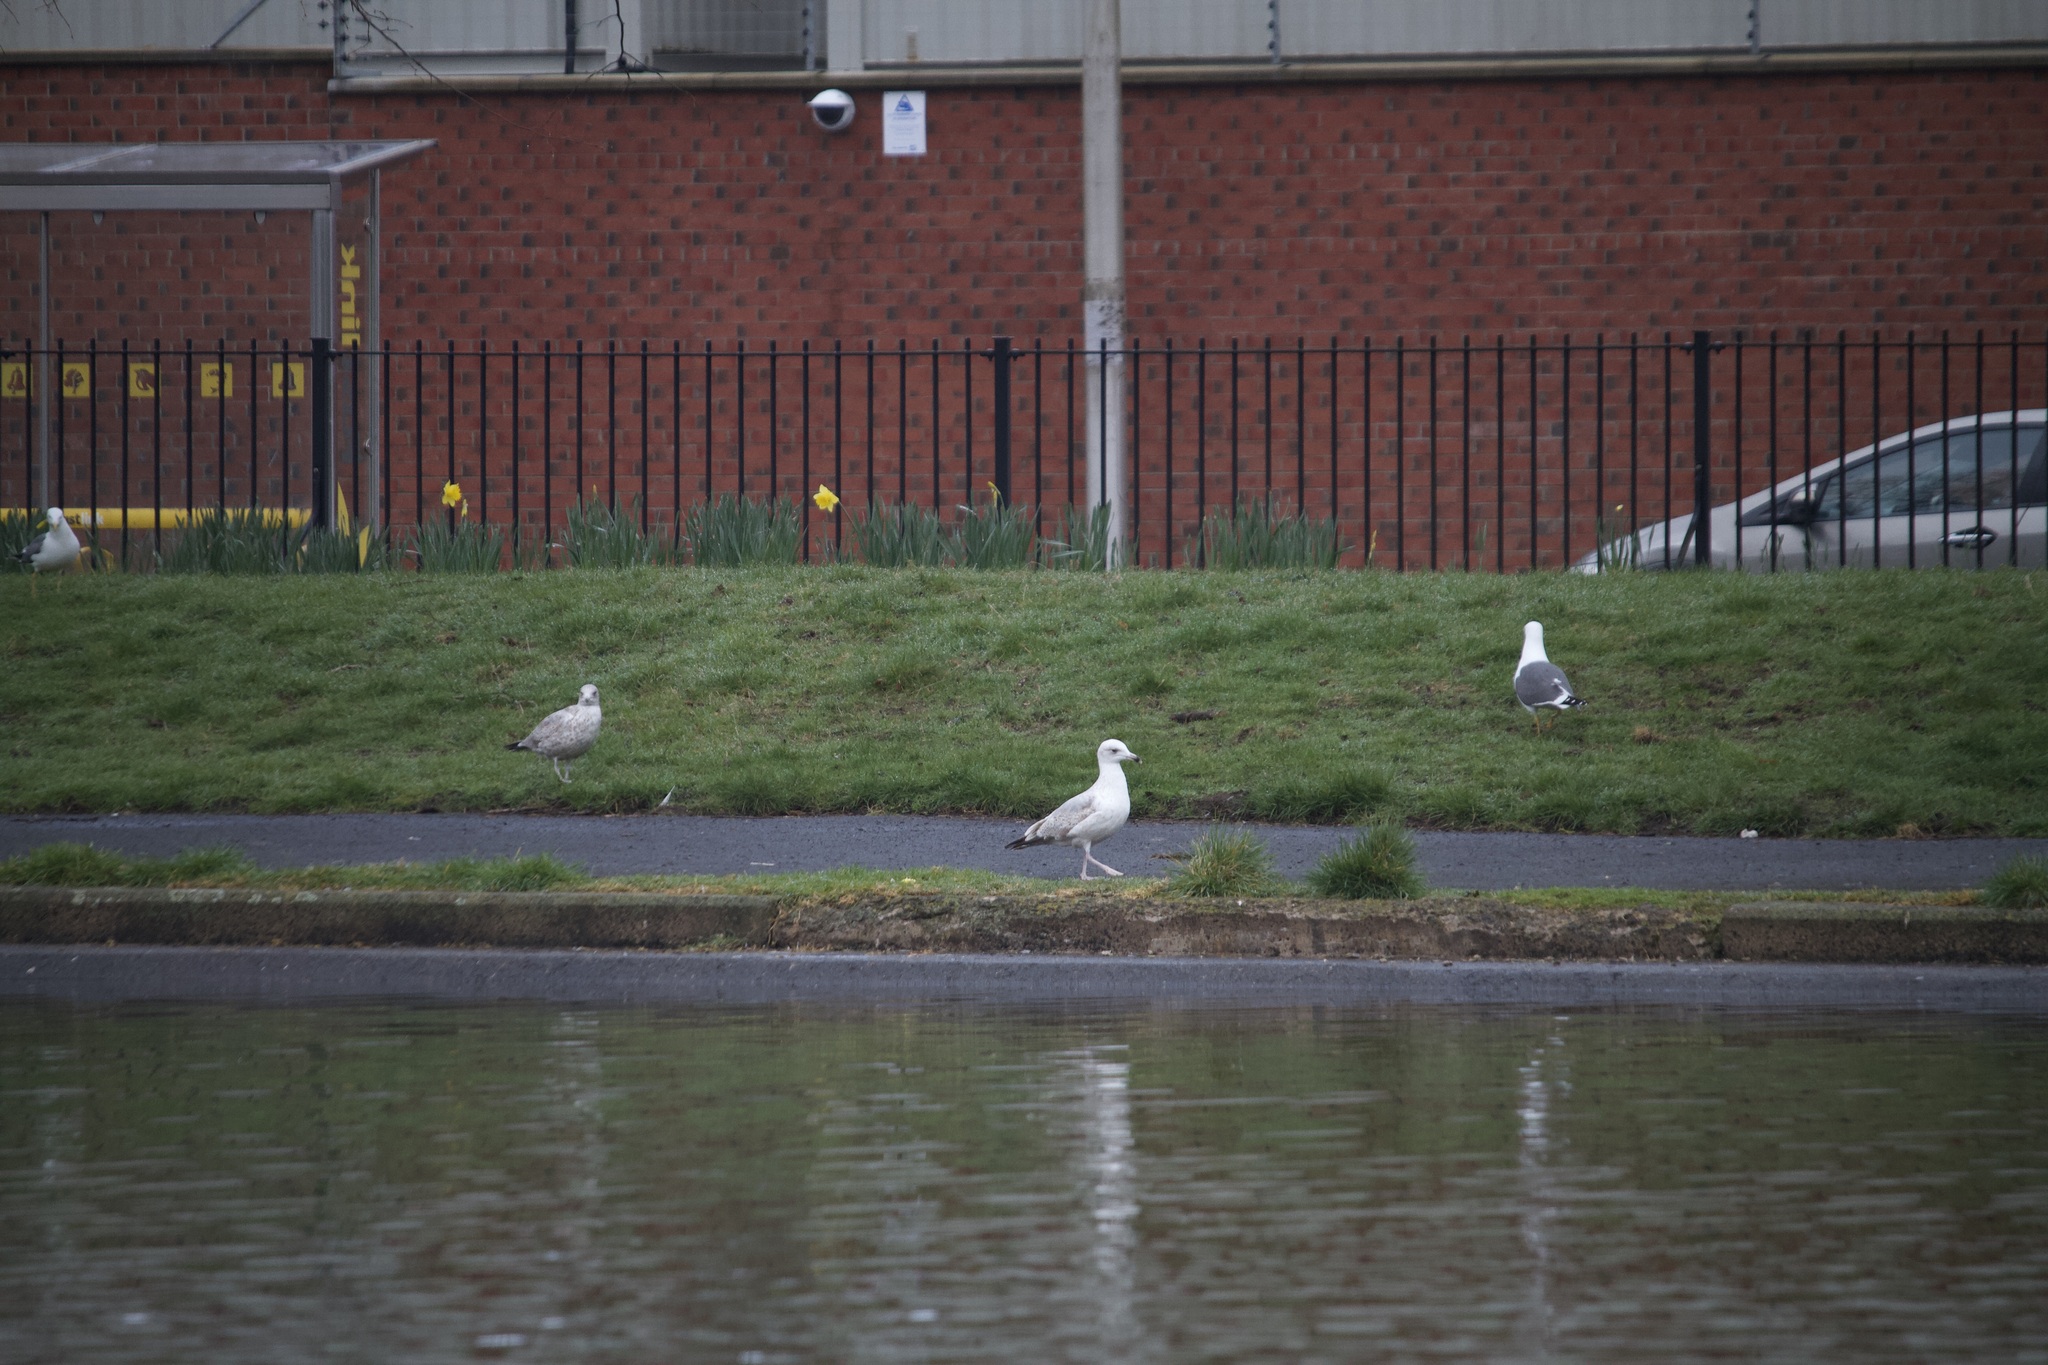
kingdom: Animalia
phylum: Chordata
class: Aves
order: Charadriiformes
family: Laridae
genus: Larus
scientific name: Larus argentatus
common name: Herring gull
